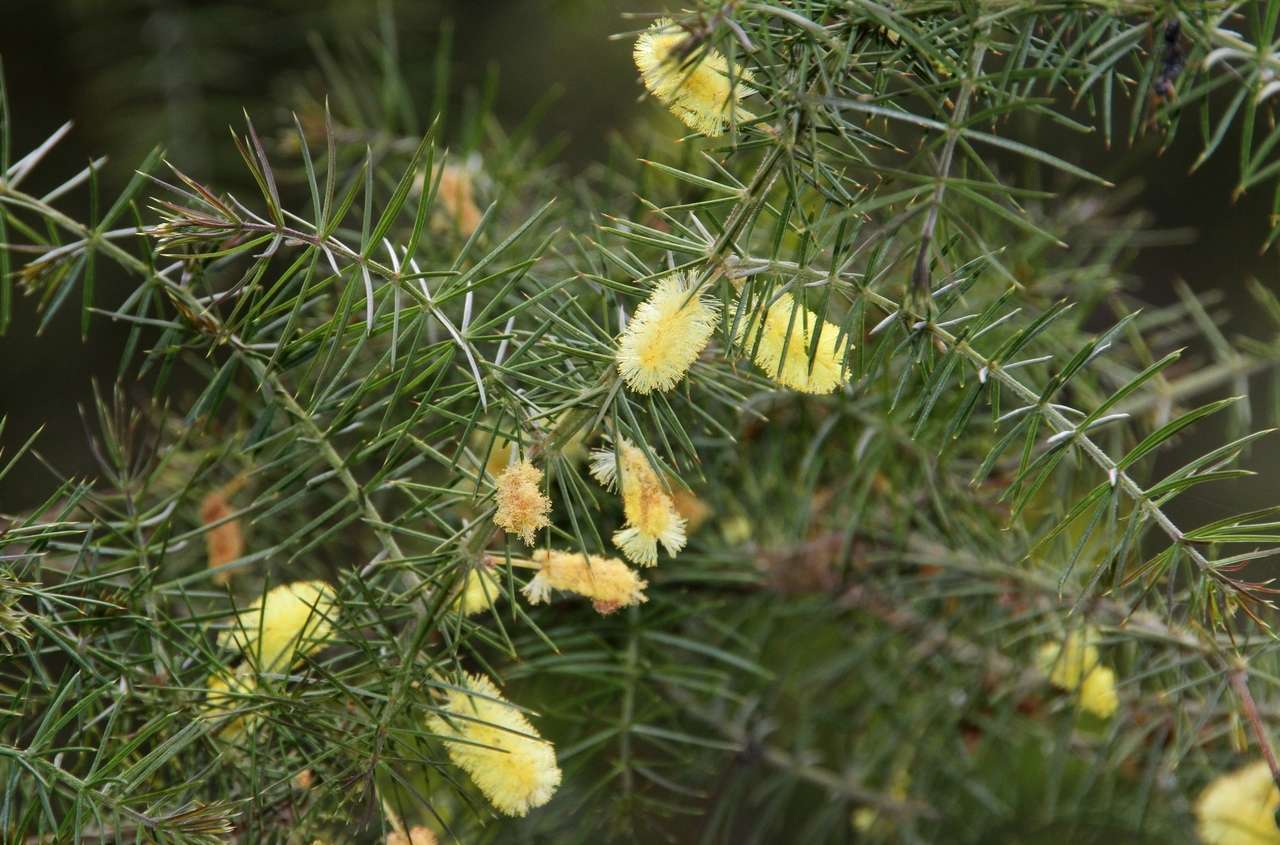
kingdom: Plantae
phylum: Tracheophyta
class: Magnoliopsida
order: Fabales
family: Fabaceae
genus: Acacia
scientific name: Acacia verticillata
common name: Prickly moses
